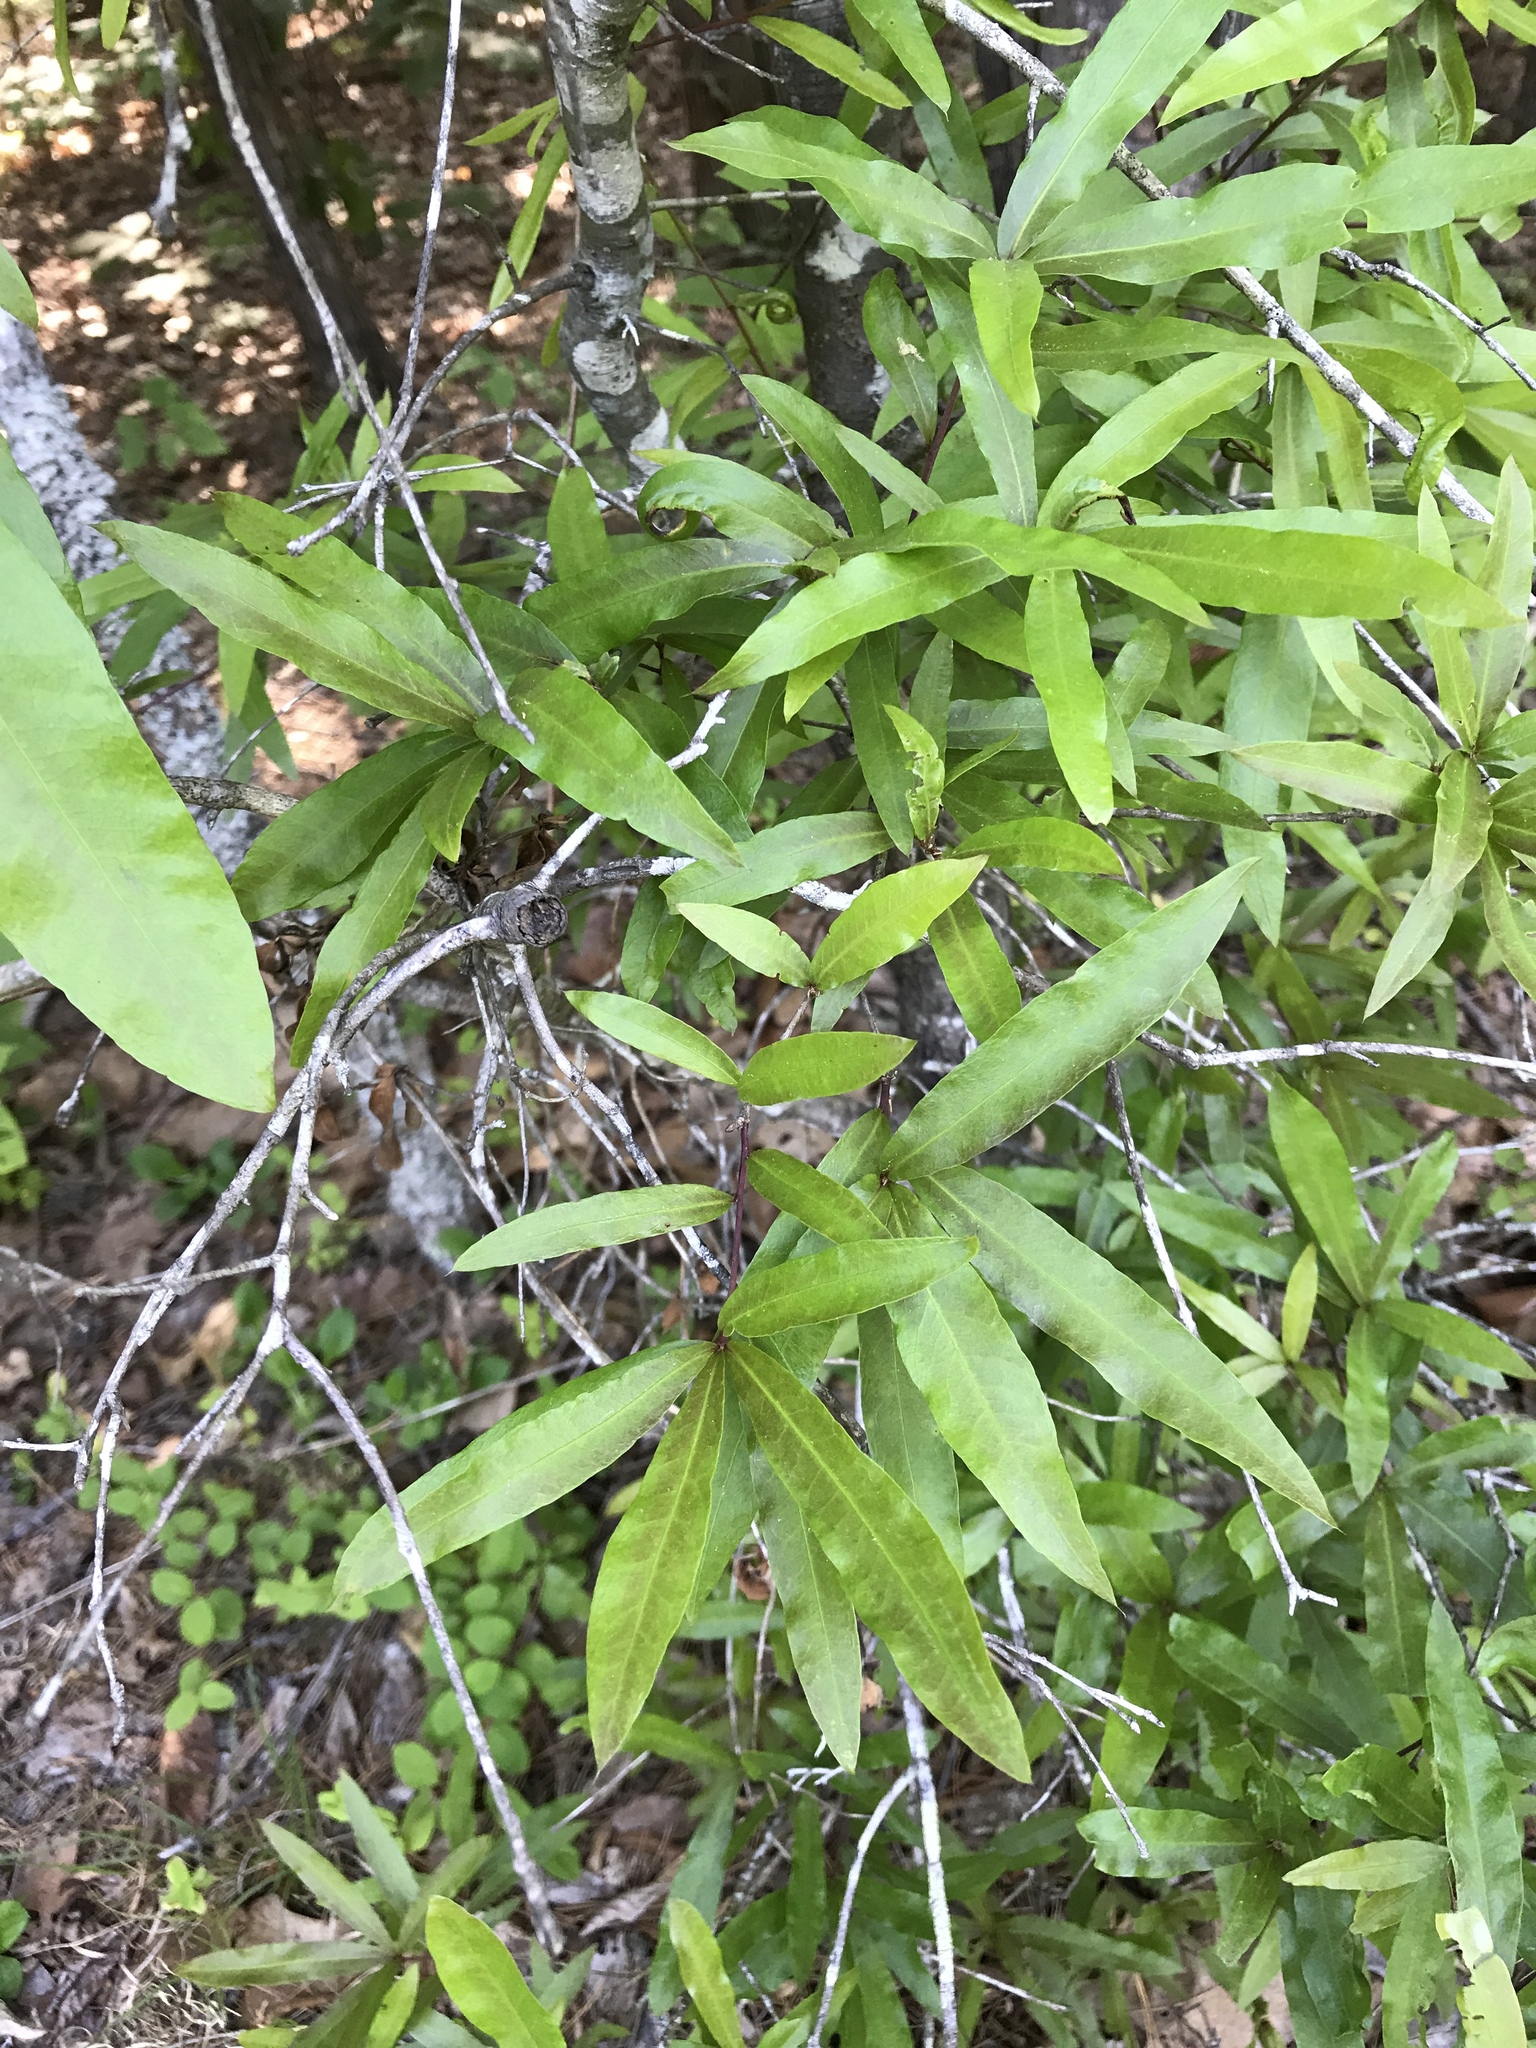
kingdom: Plantae
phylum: Tracheophyta
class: Magnoliopsida
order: Fagales
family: Fagaceae
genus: Quercus
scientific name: Quercus phellos
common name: Willow oak
